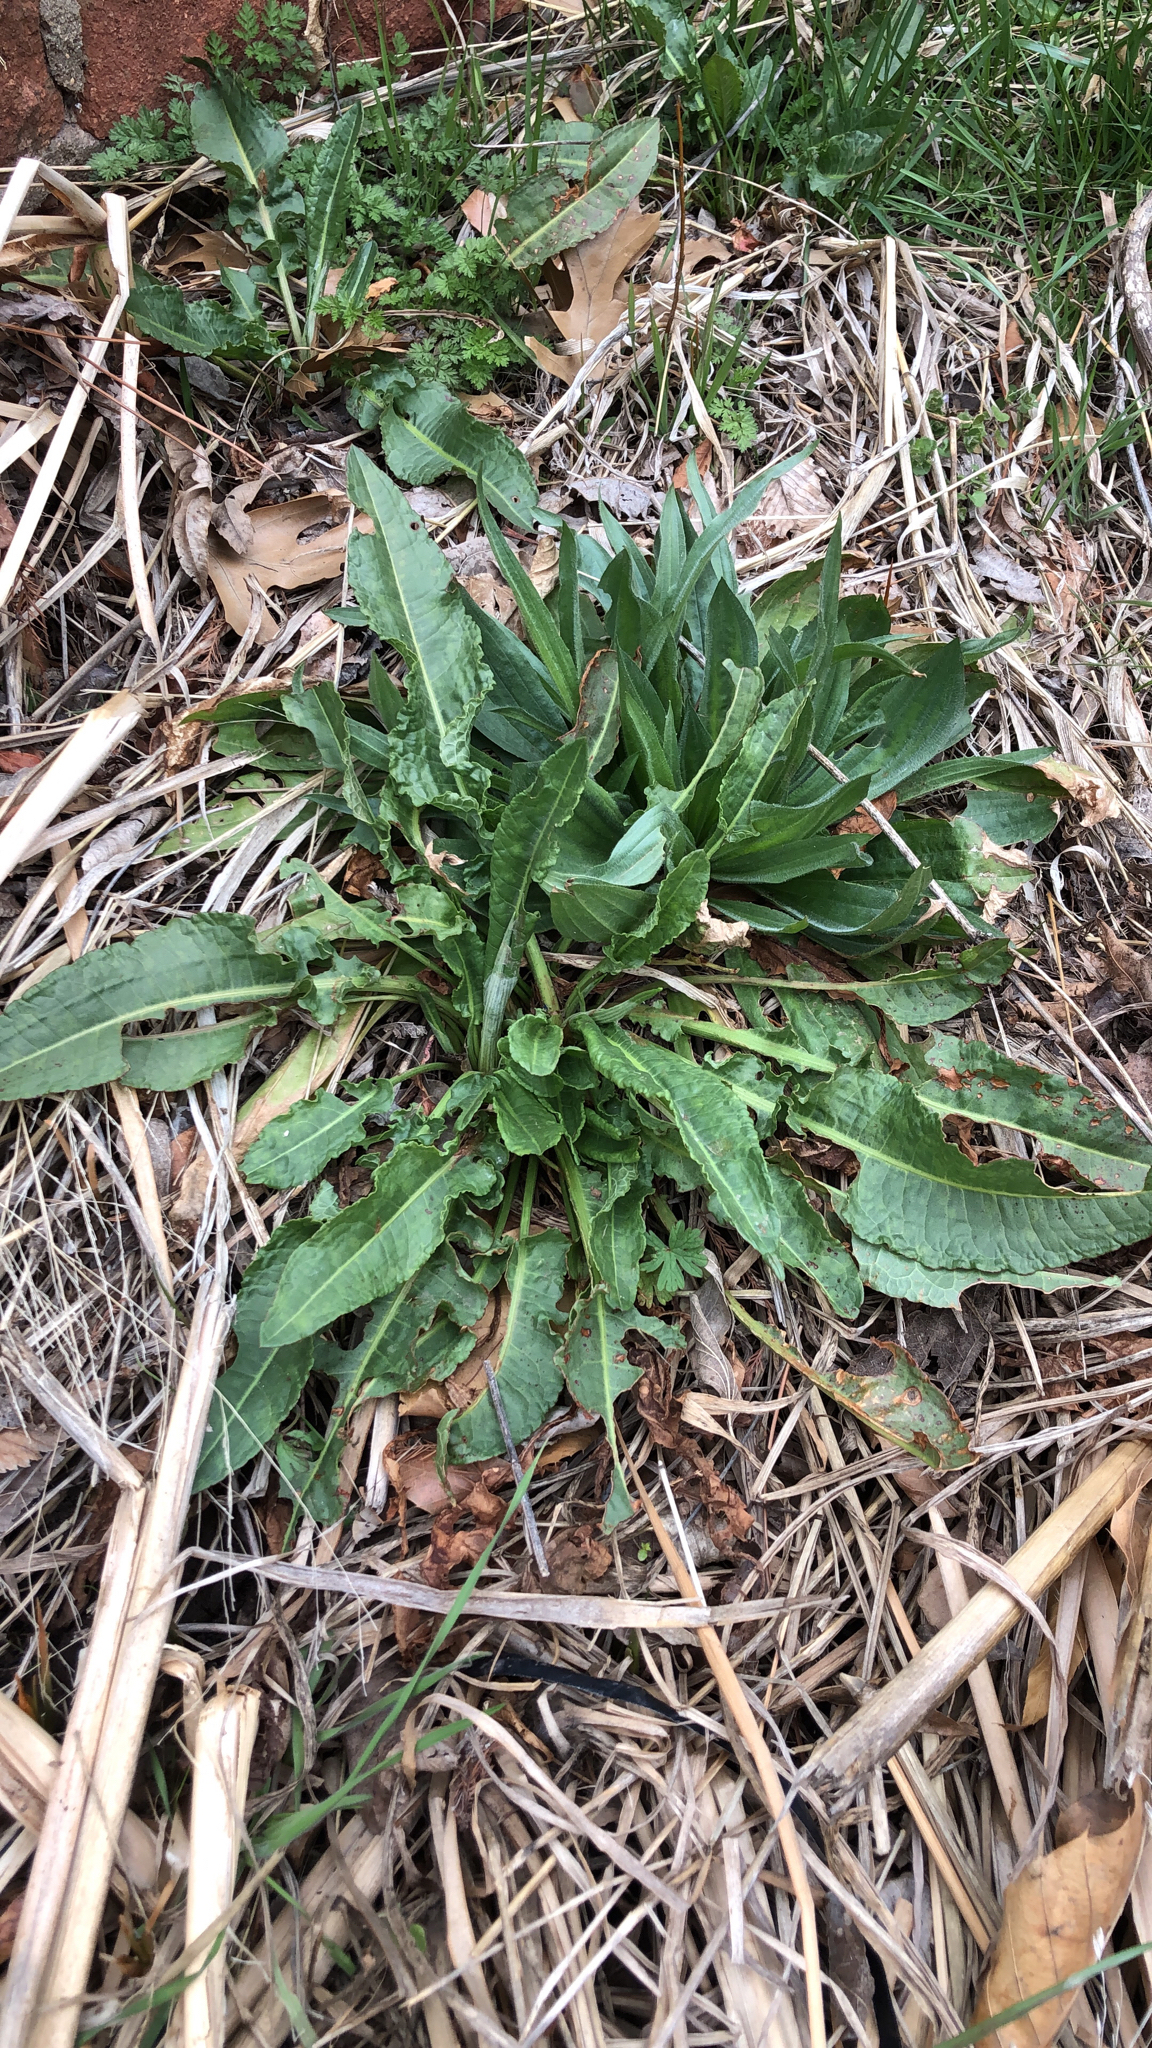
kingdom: Plantae
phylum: Tracheophyta
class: Magnoliopsida
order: Caryophyllales
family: Polygonaceae
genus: Rumex
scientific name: Rumex crispus
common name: Curled dock
